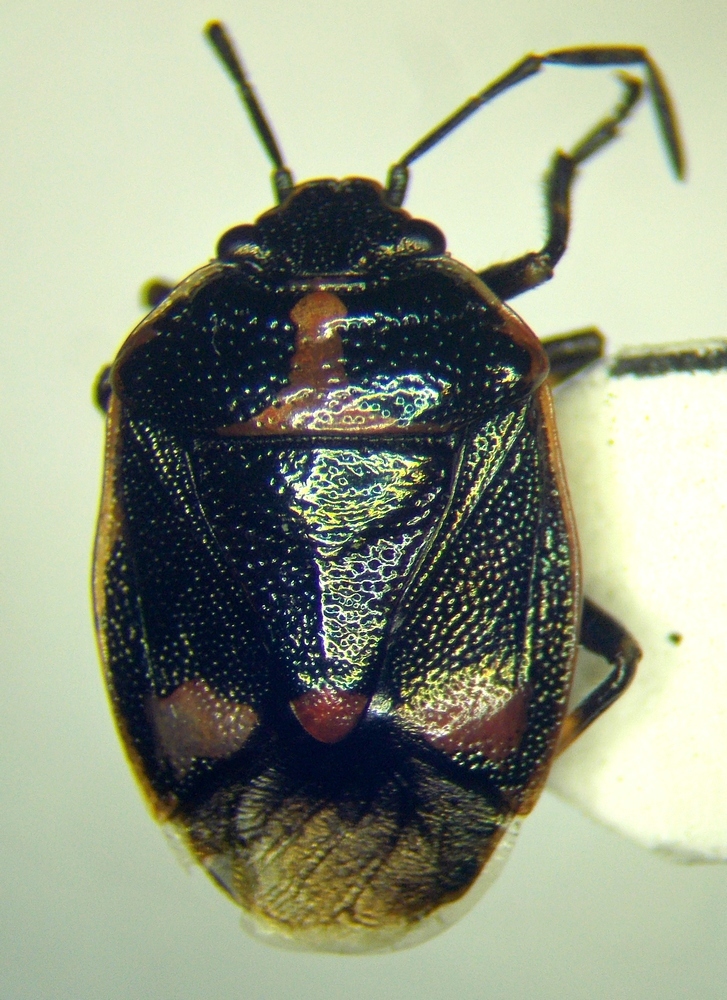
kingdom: Animalia
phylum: Arthropoda
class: Insecta
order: Hemiptera
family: Pentatomidae
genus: Eurydema
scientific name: Eurydema oleracea
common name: Cabbage bug
